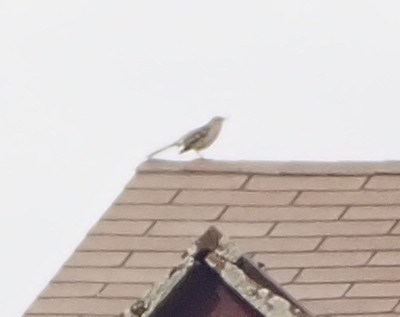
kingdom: Animalia
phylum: Chordata
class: Aves
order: Passeriformes
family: Mimidae
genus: Mimus
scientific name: Mimus polyglottos
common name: Northern mockingbird
